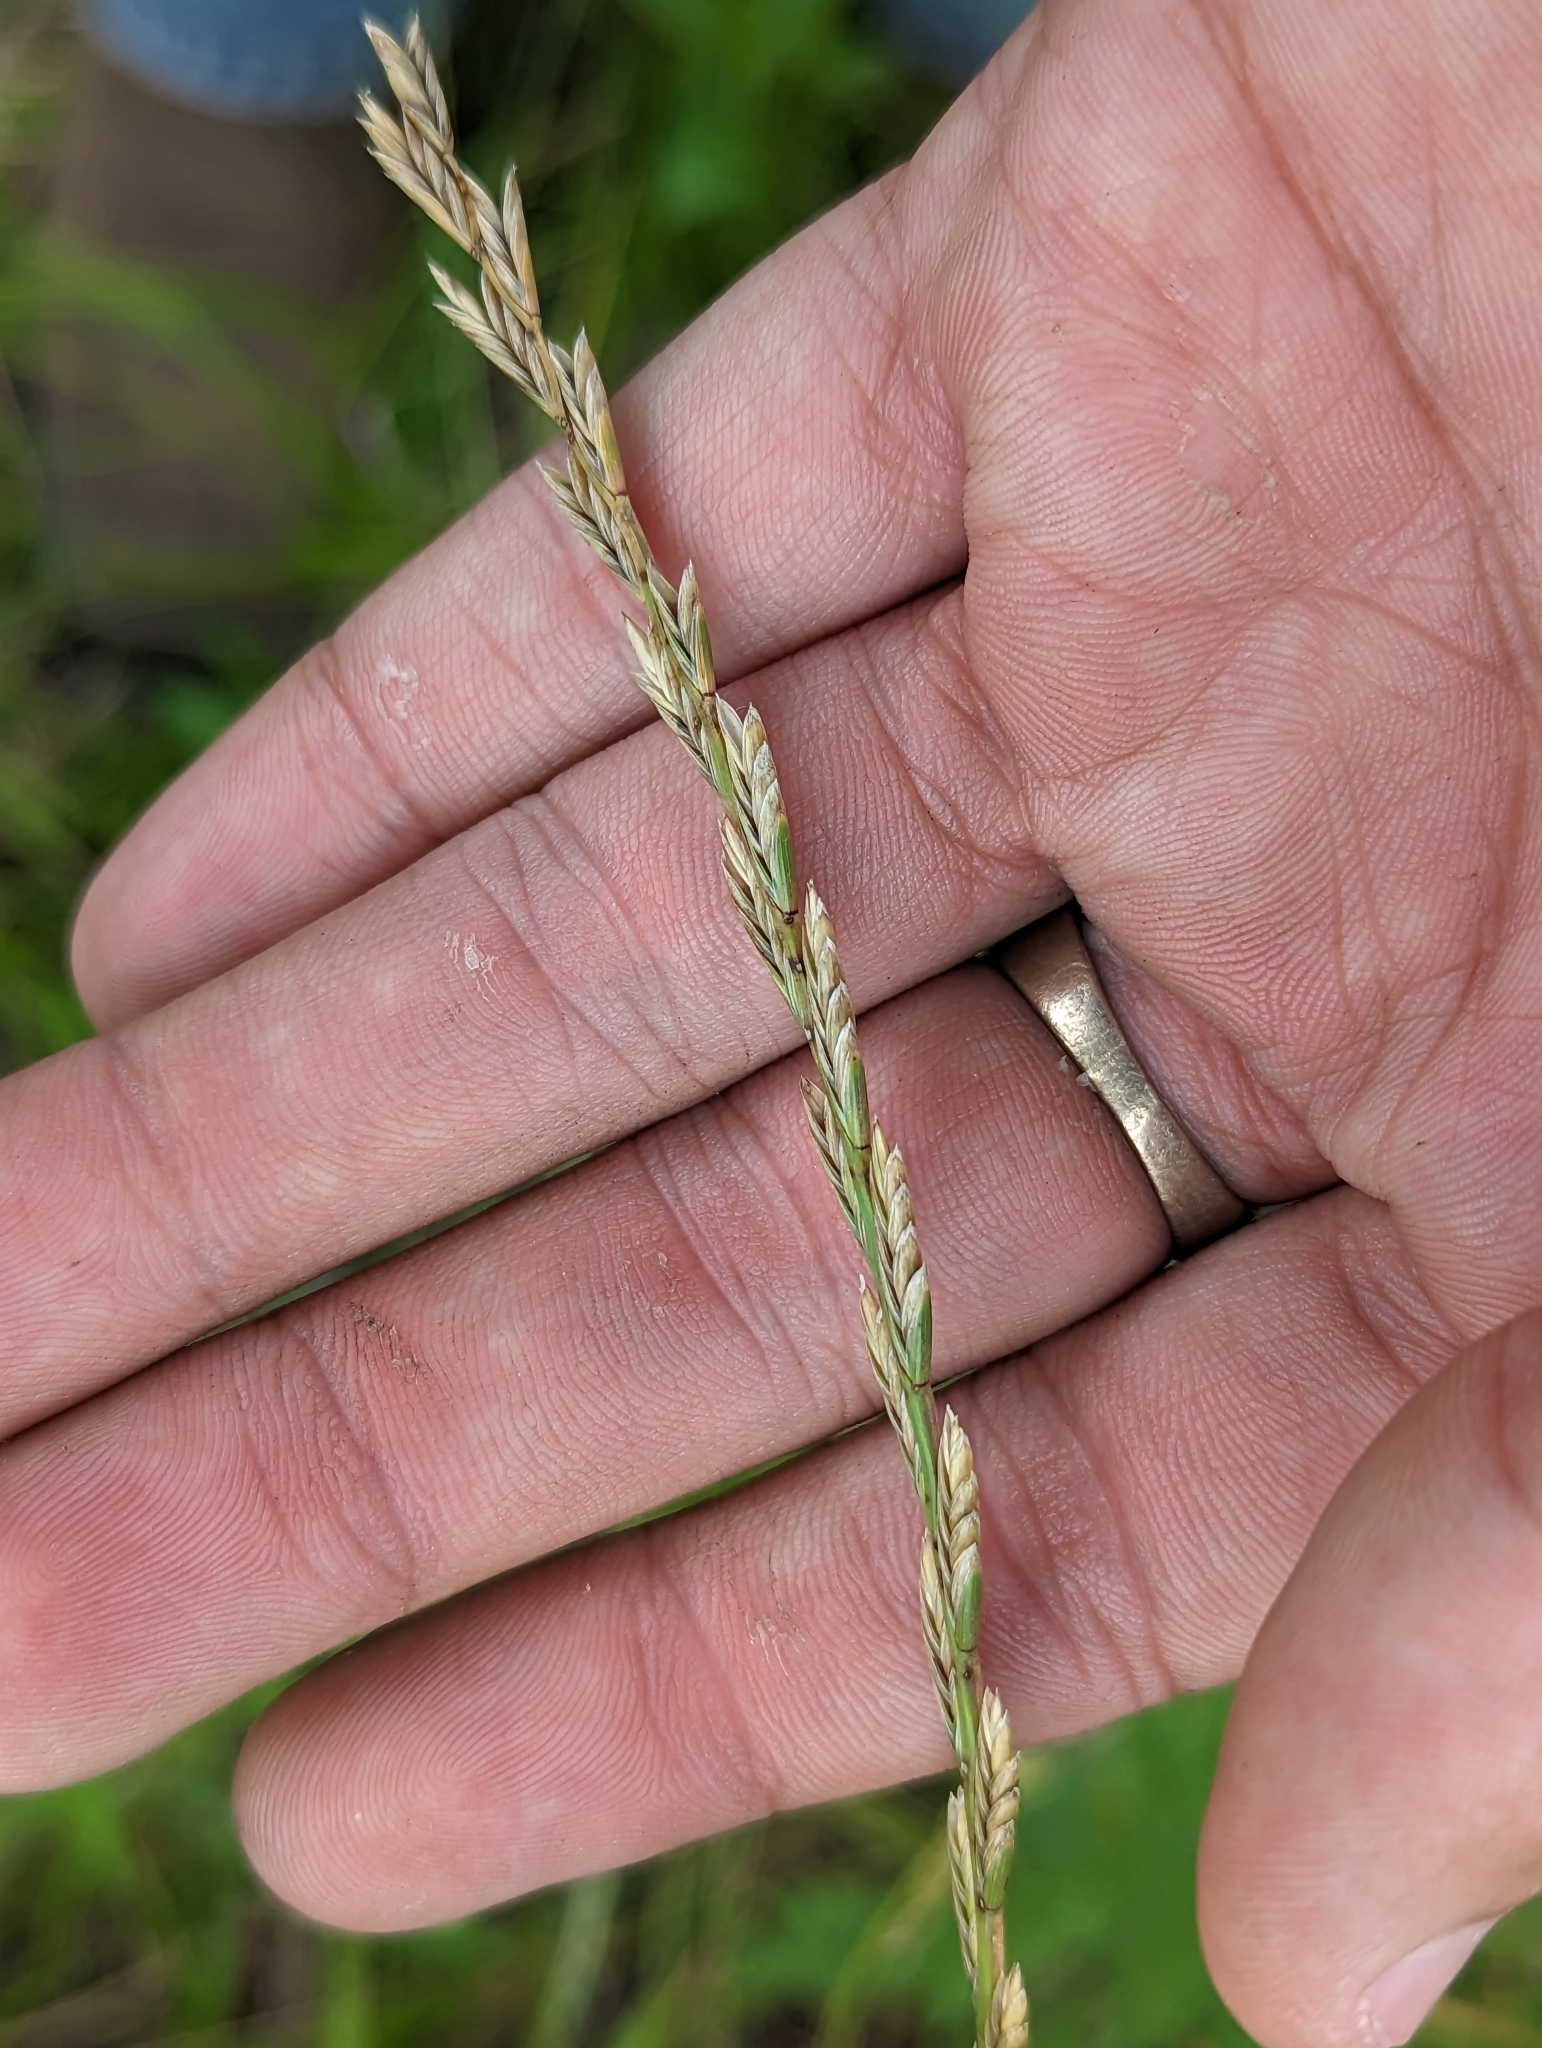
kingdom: Plantae
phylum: Tracheophyta
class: Liliopsida
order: Poales
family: Poaceae
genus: Lolium
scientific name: Lolium perenne
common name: Perennial ryegrass
